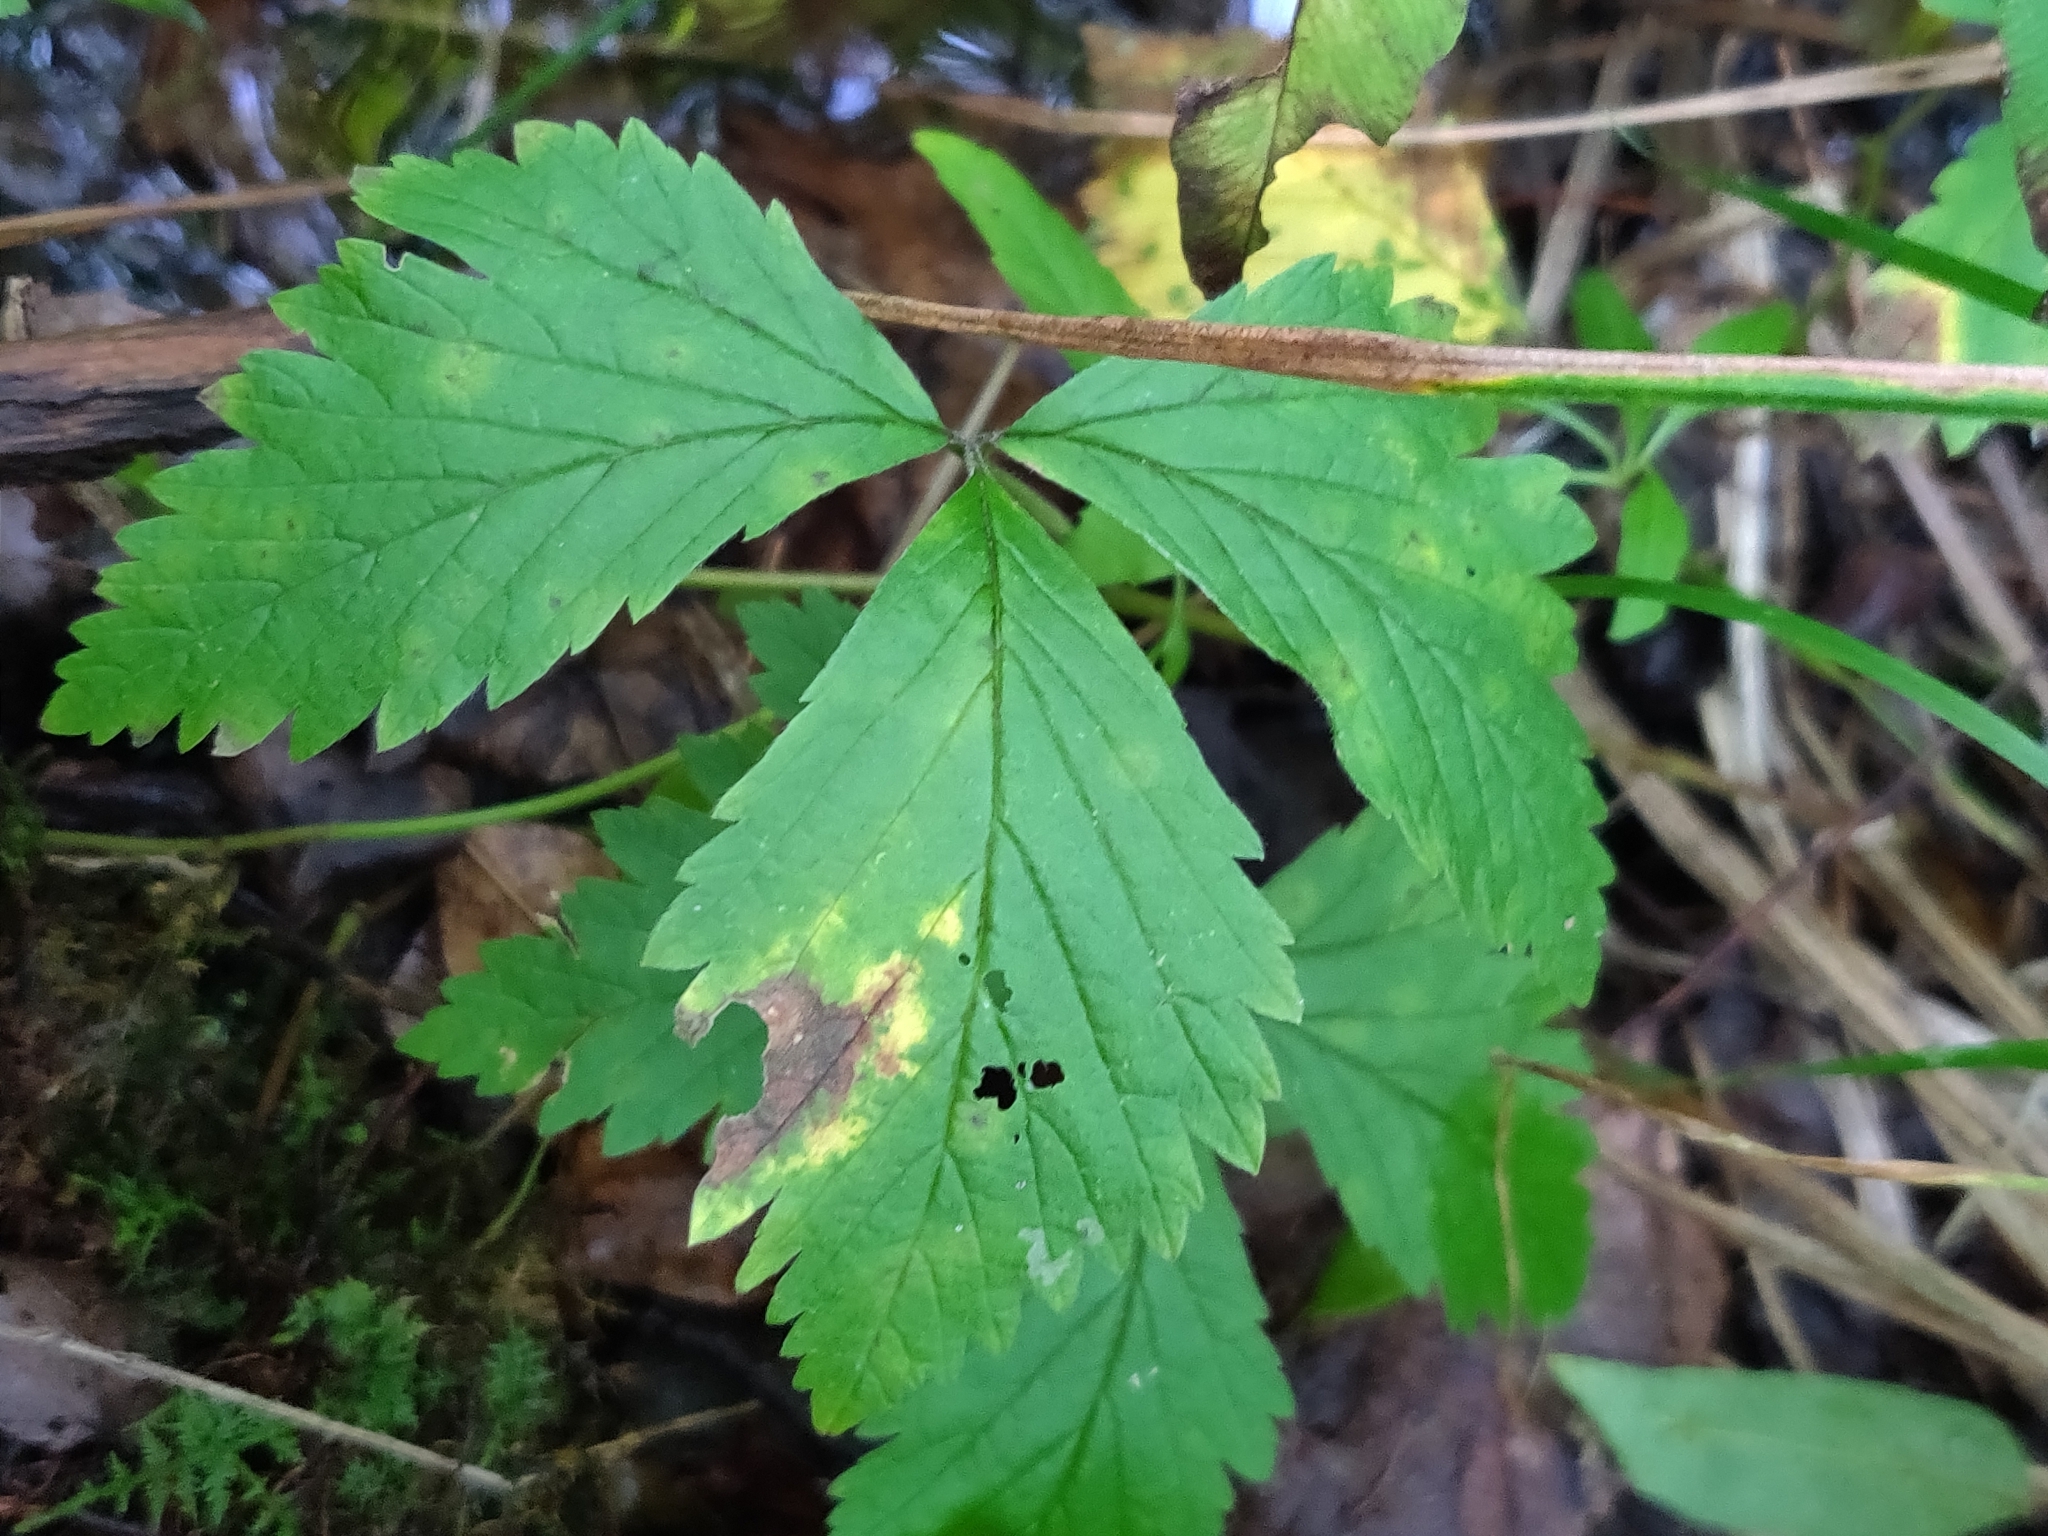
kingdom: Plantae
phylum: Tracheophyta
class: Magnoliopsida
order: Rosales
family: Rosaceae
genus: Rubus
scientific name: Rubus pubescens
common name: Dwarf raspberry
